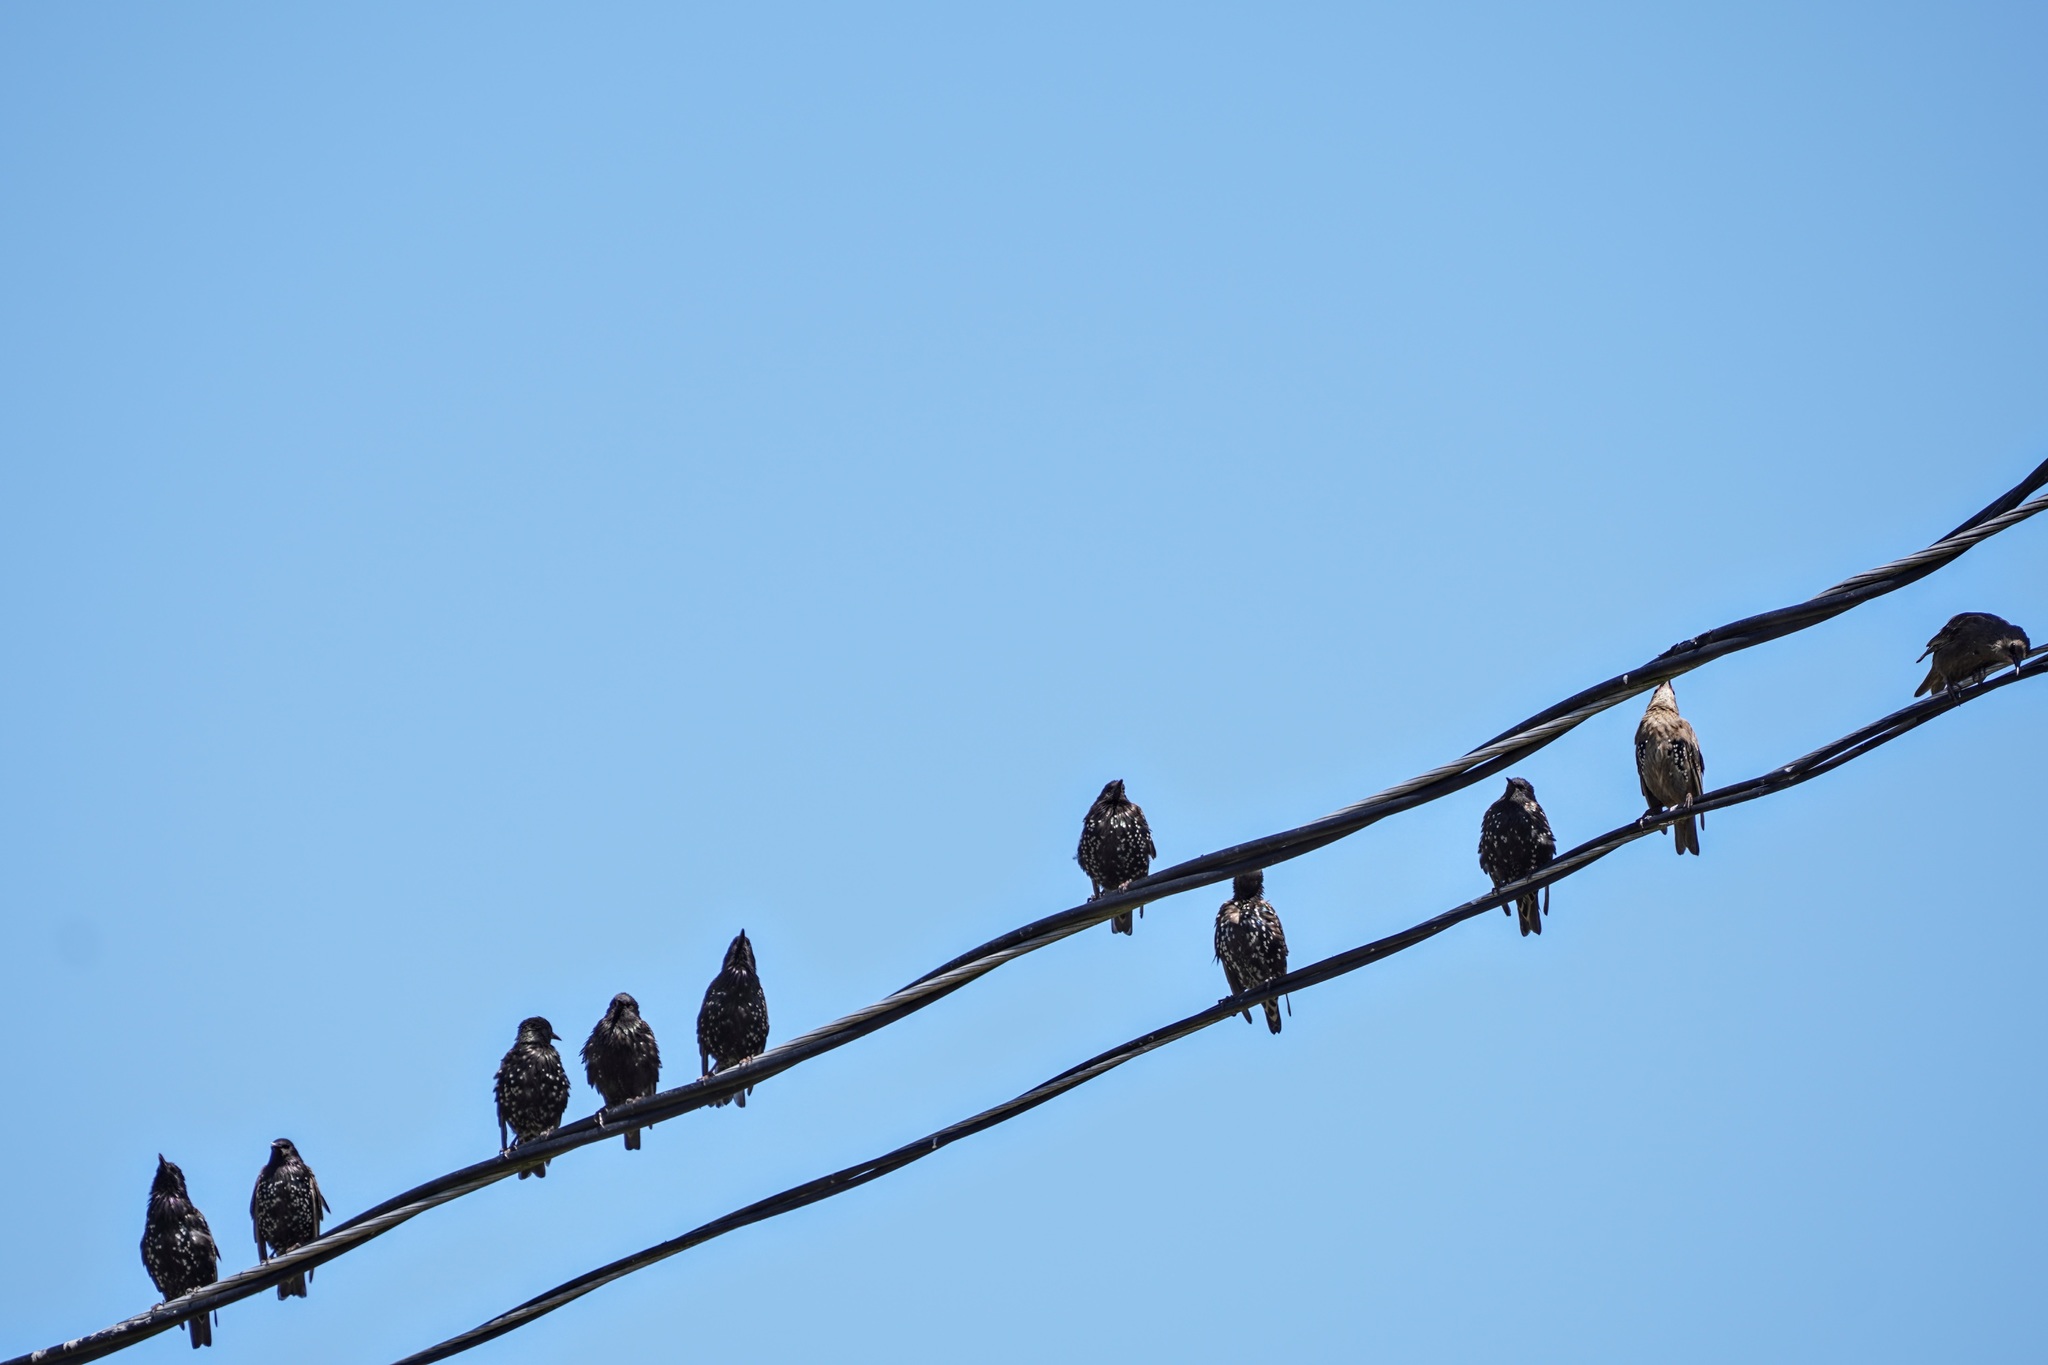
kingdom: Animalia
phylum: Chordata
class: Aves
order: Passeriformes
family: Sturnidae
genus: Sturnus
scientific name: Sturnus vulgaris
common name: Common starling
